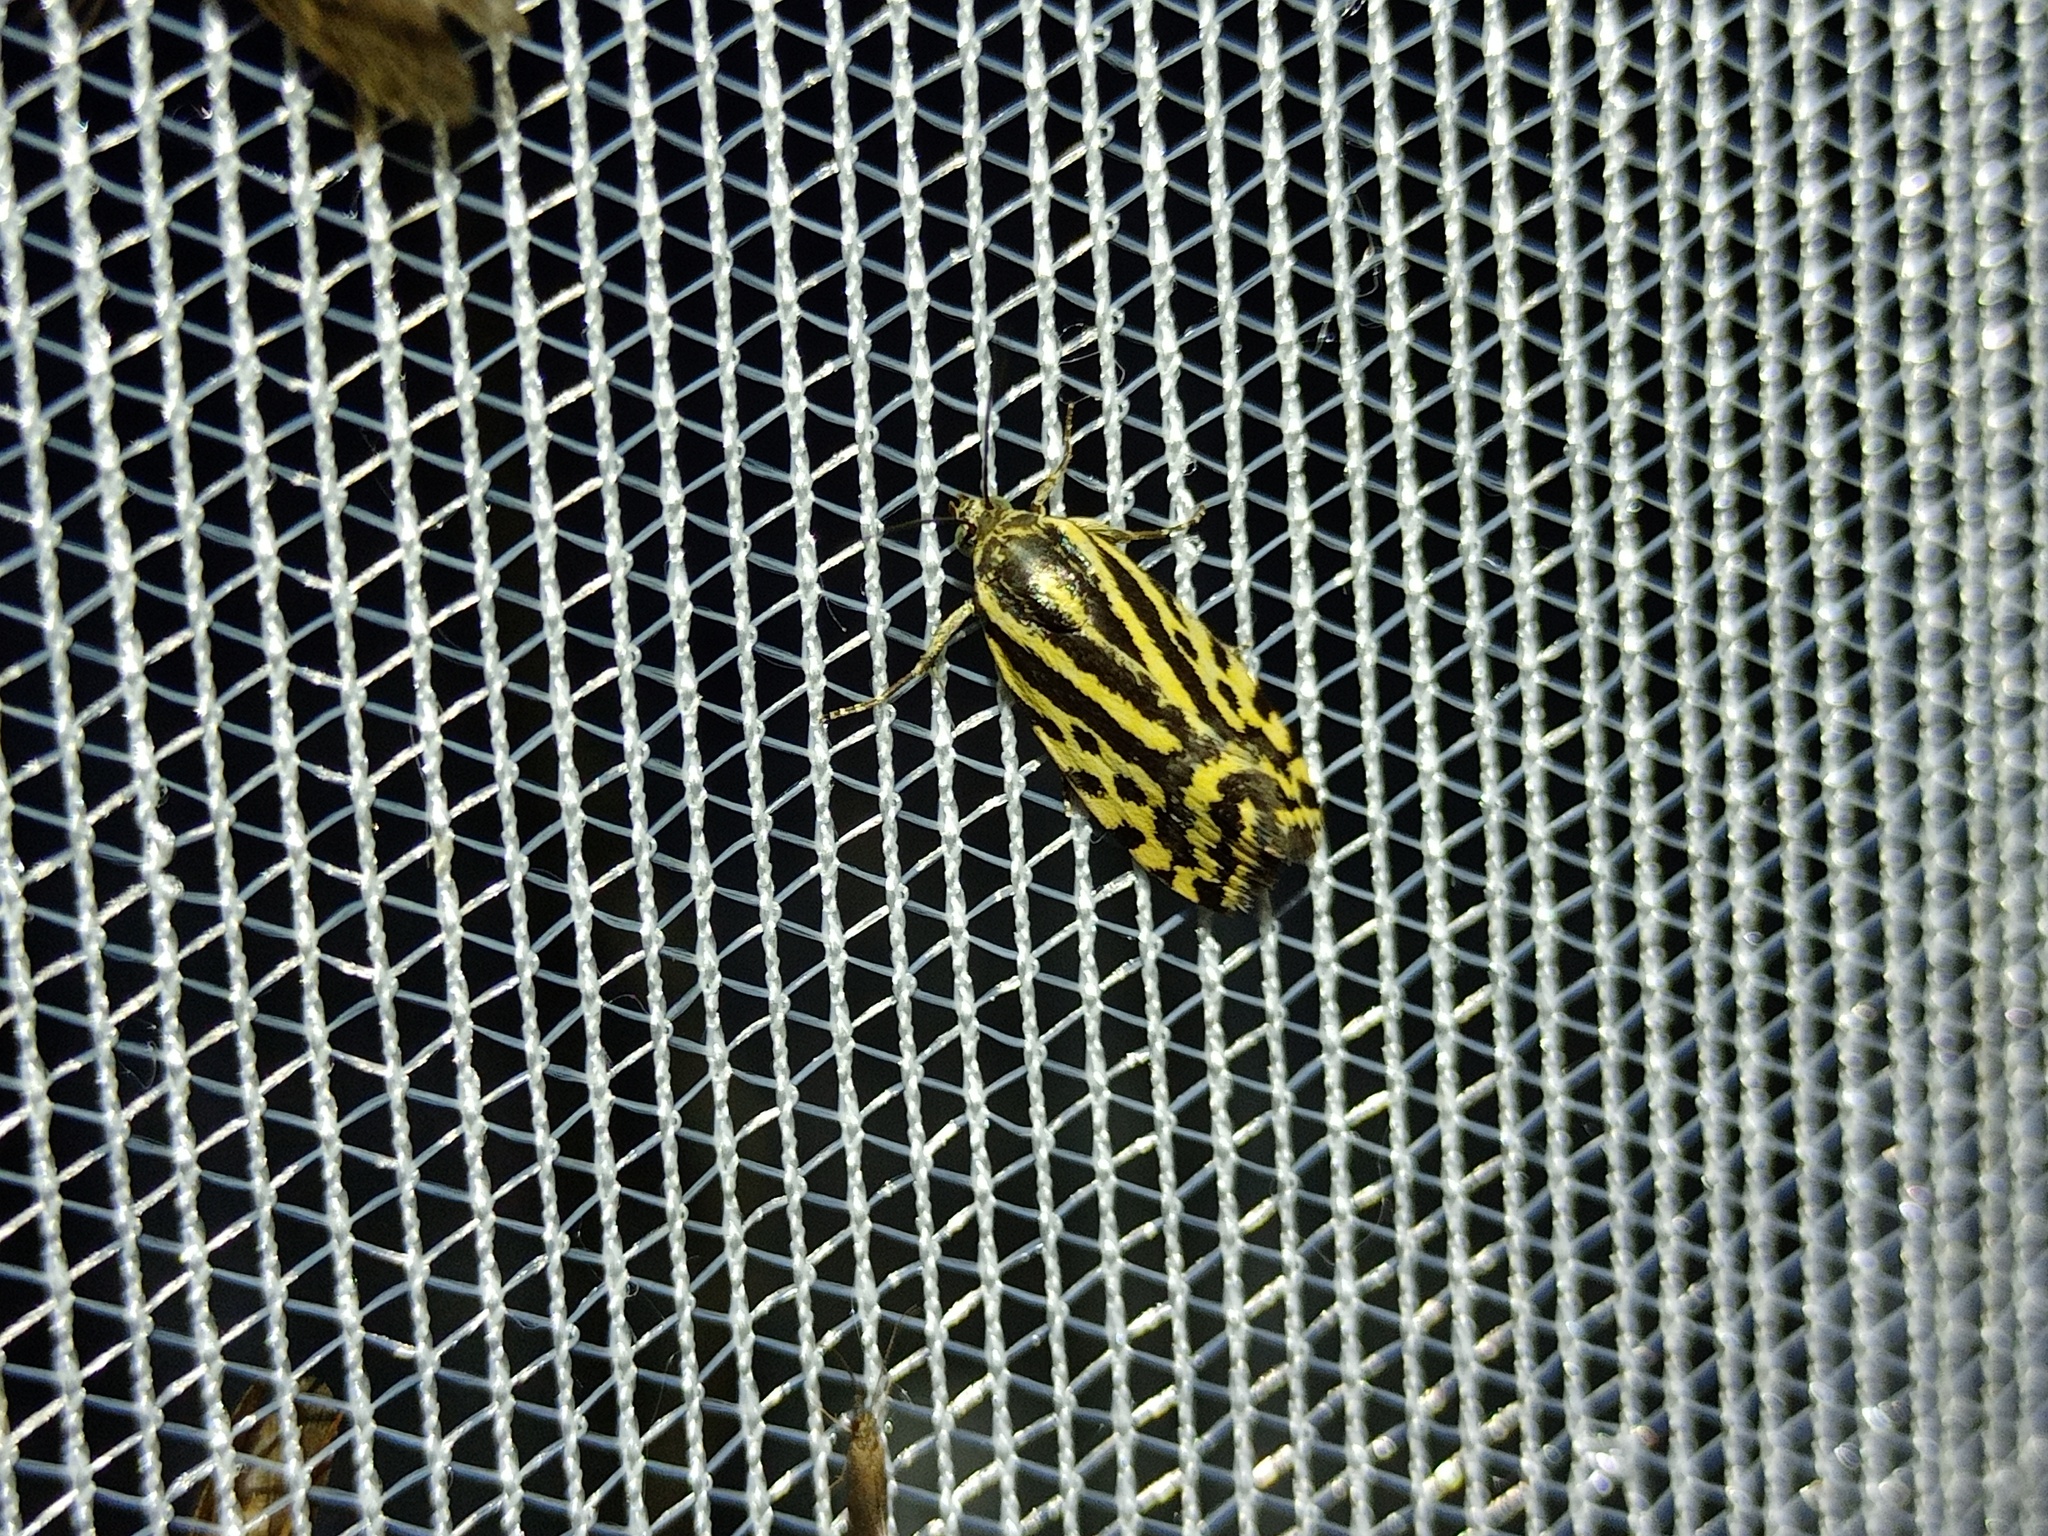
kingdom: Animalia
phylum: Arthropoda
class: Insecta
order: Lepidoptera
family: Noctuidae
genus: Acontia
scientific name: Acontia trabealis
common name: Spotted sulphur
